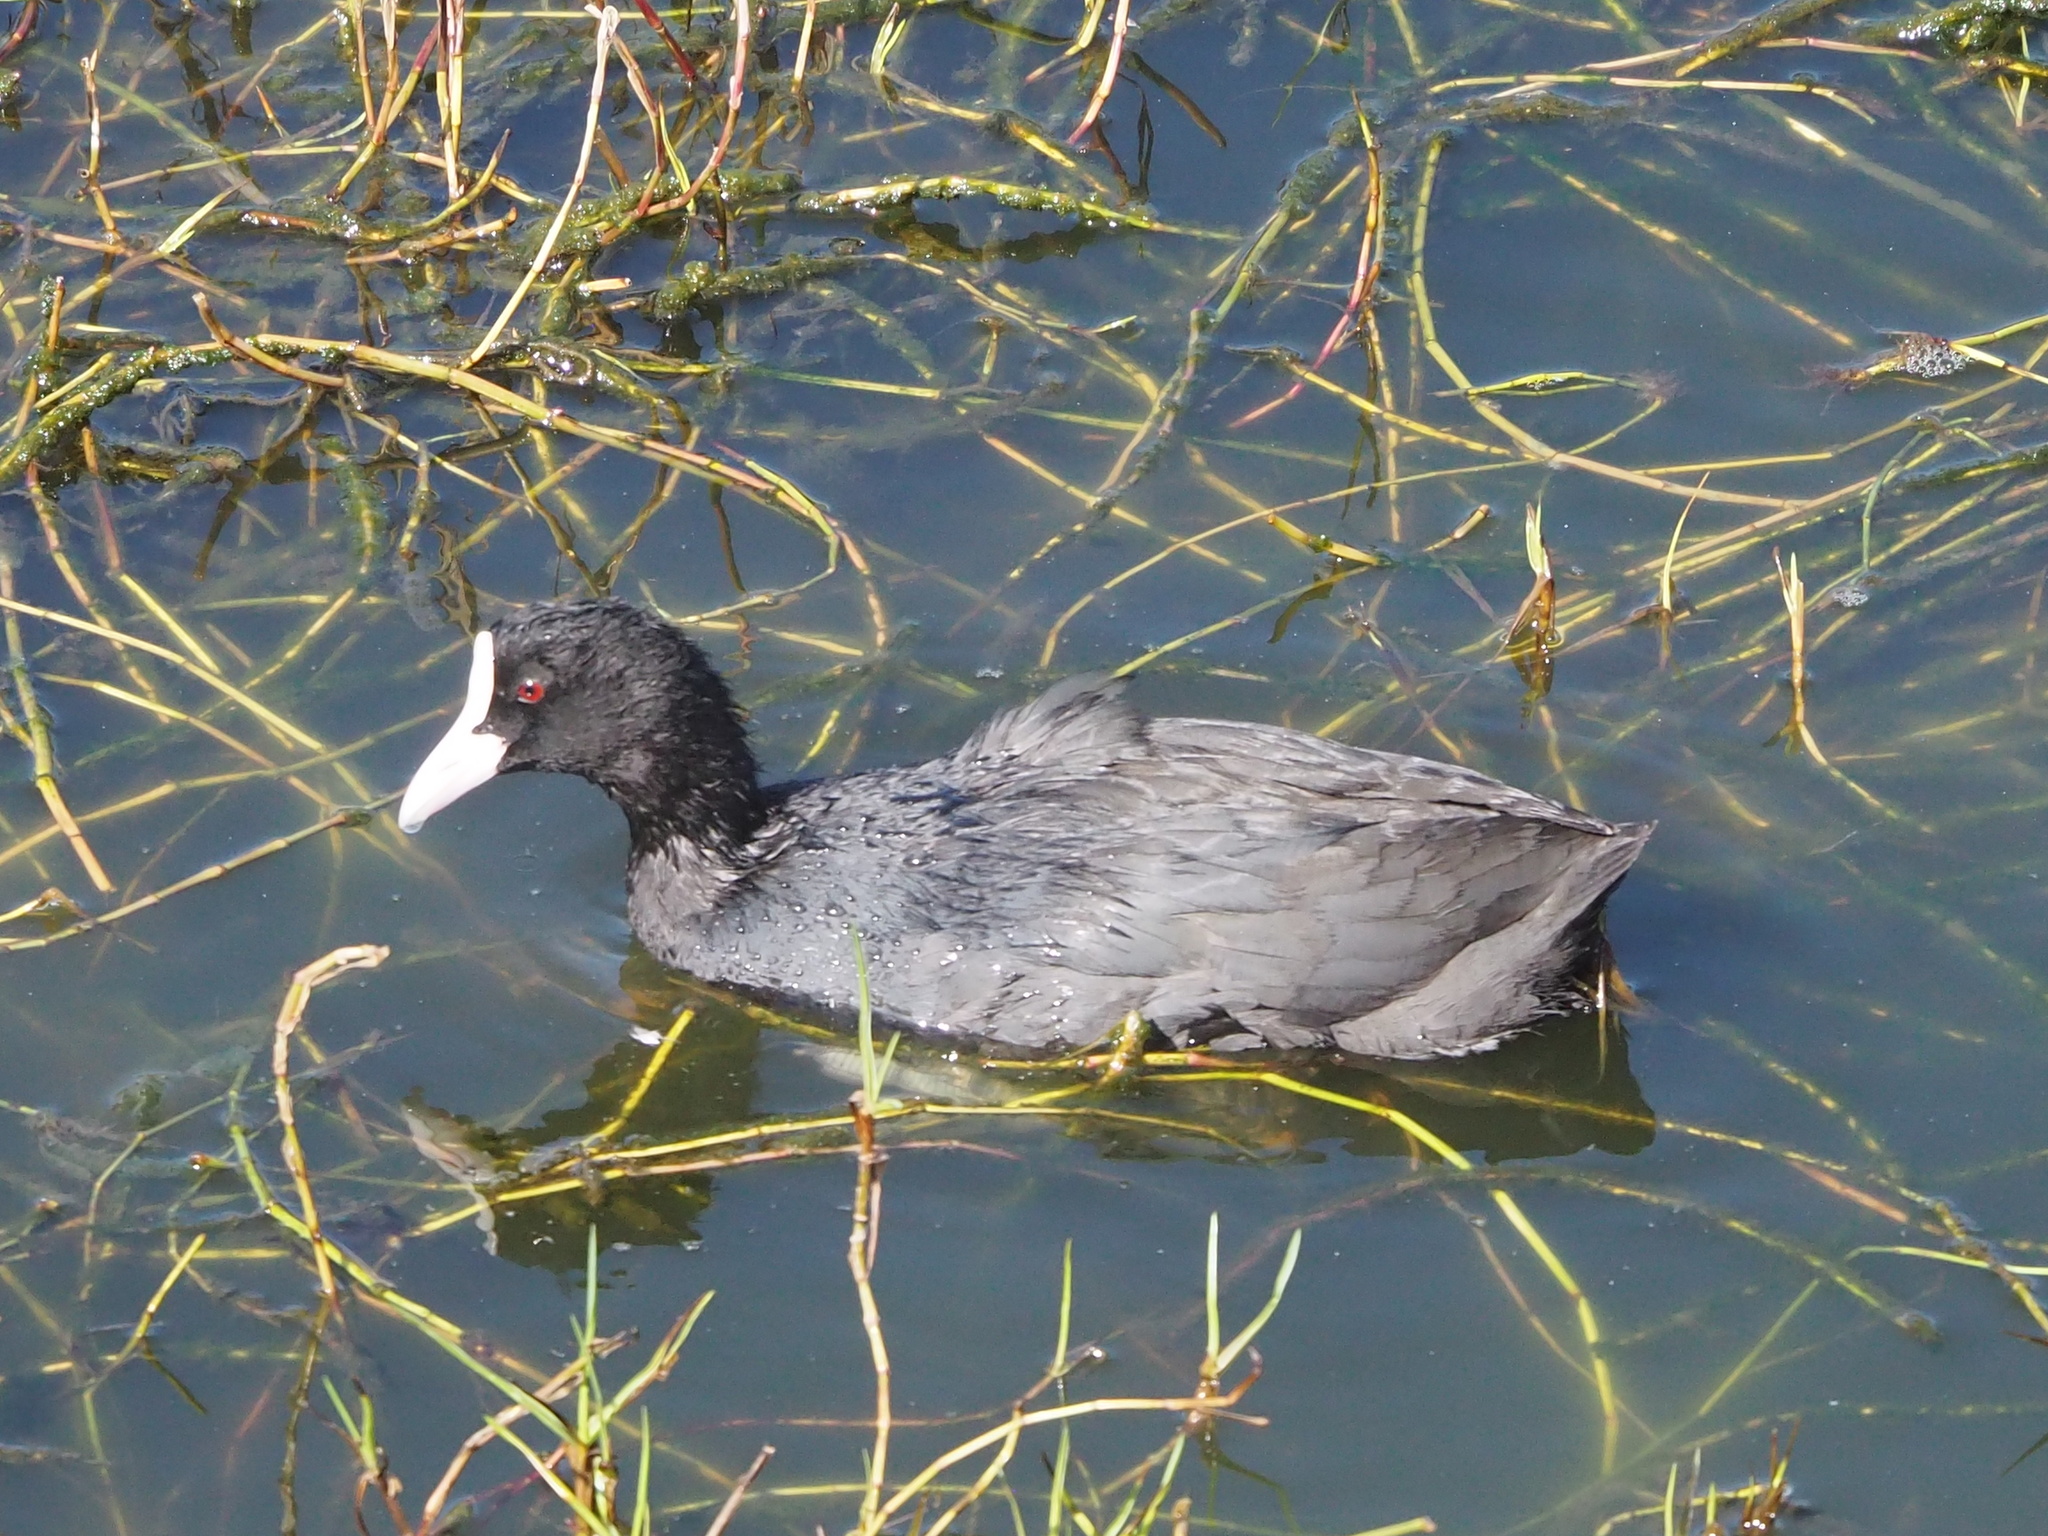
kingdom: Animalia
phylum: Chordata
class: Aves
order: Gruiformes
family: Rallidae
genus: Fulica
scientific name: Fulica atra
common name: Eurasian coot
